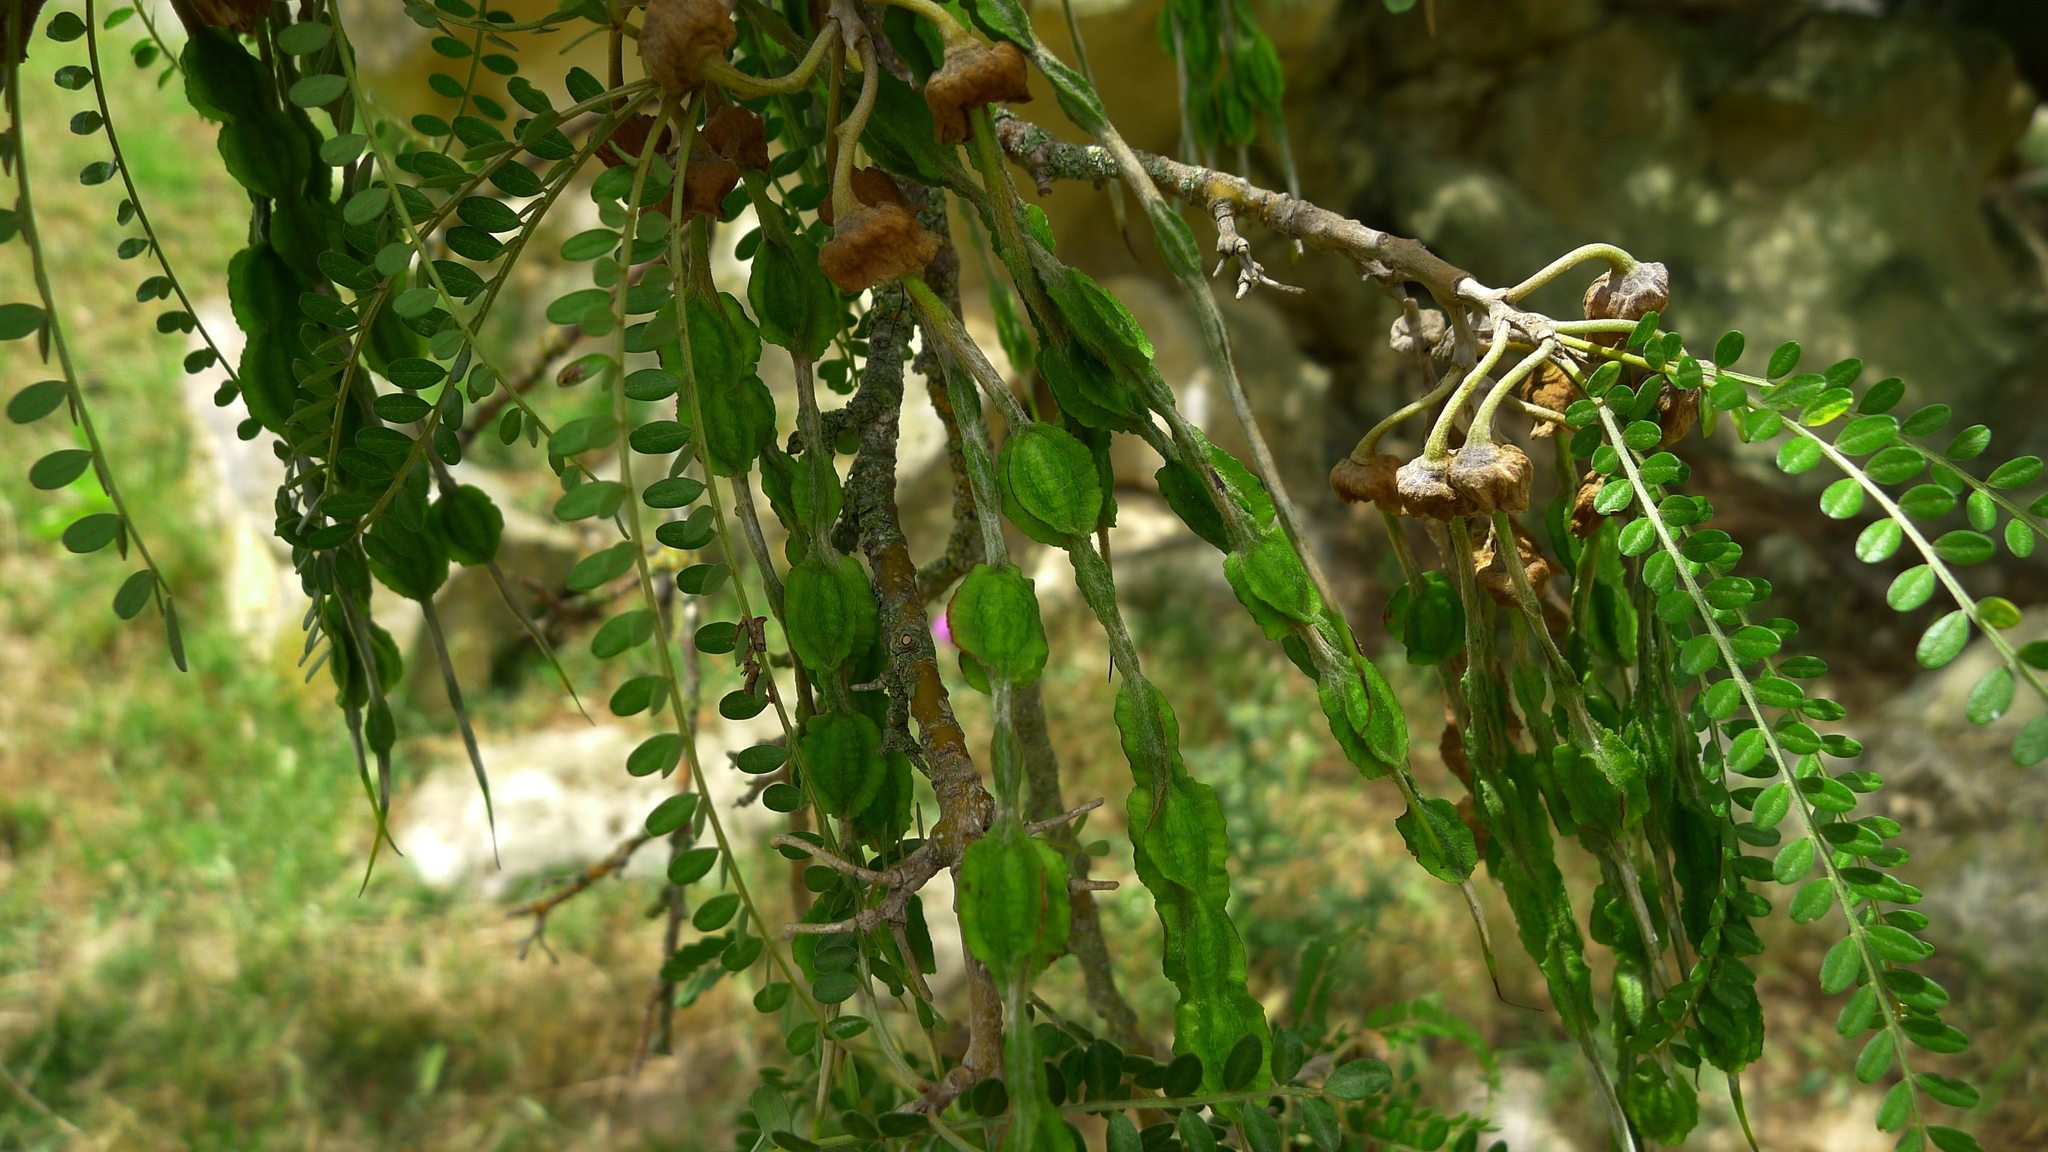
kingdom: Plantae
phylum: Tracheophyta
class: Magnoliopsida
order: Fabales
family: Fabaceae
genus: Sophora
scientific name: Sophora microphylla
